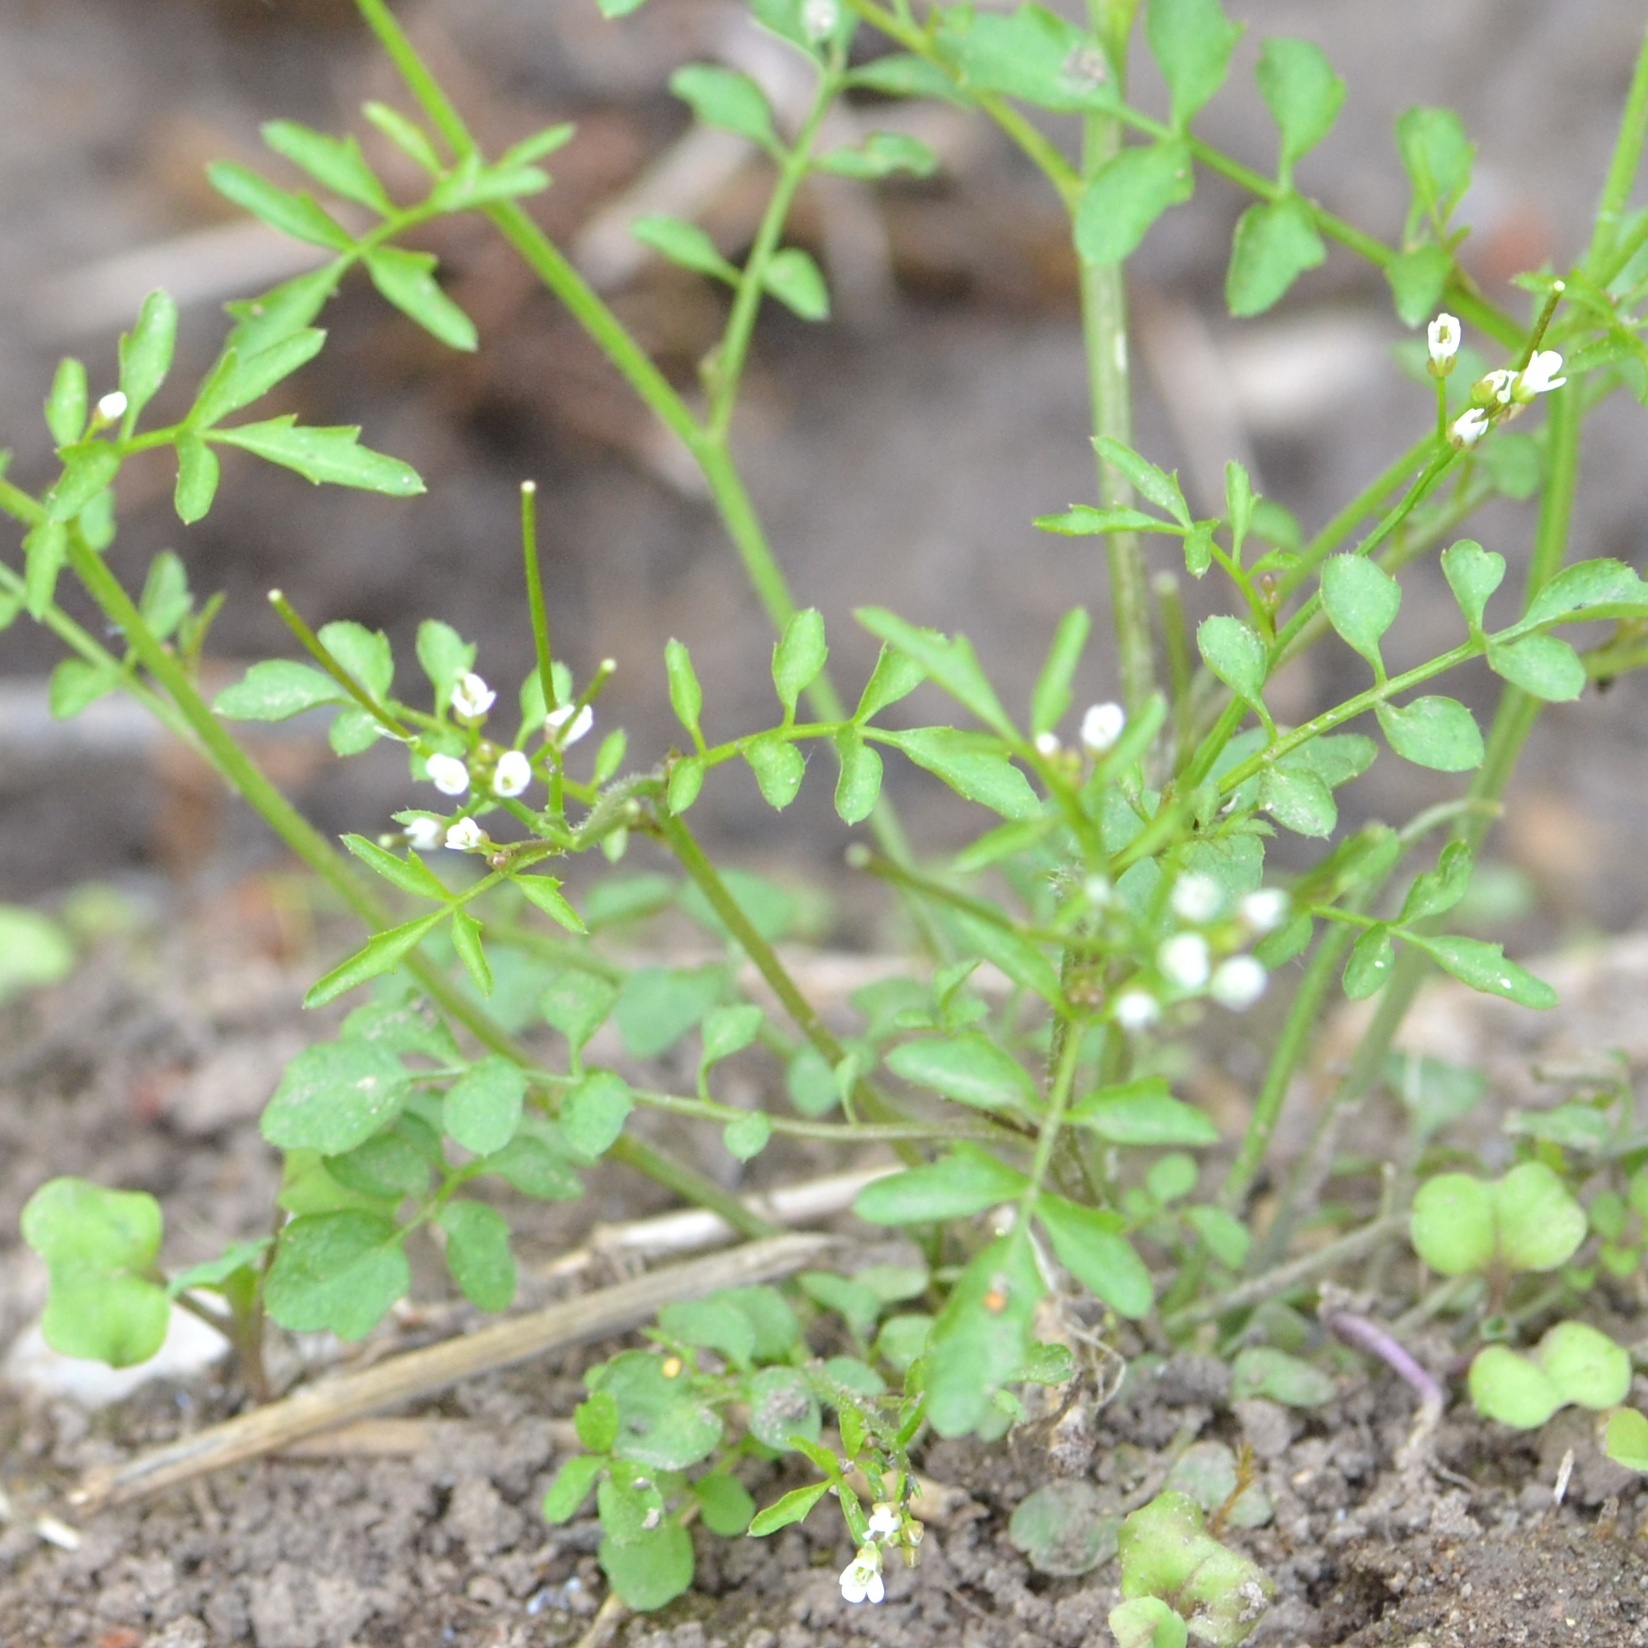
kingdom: Plantae
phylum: Tracheophyta
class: Magnoliopsida
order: Brassicales
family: Brassicaceae
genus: Cardamine
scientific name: Cardamine flexuosa
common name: Woodland bittercress
